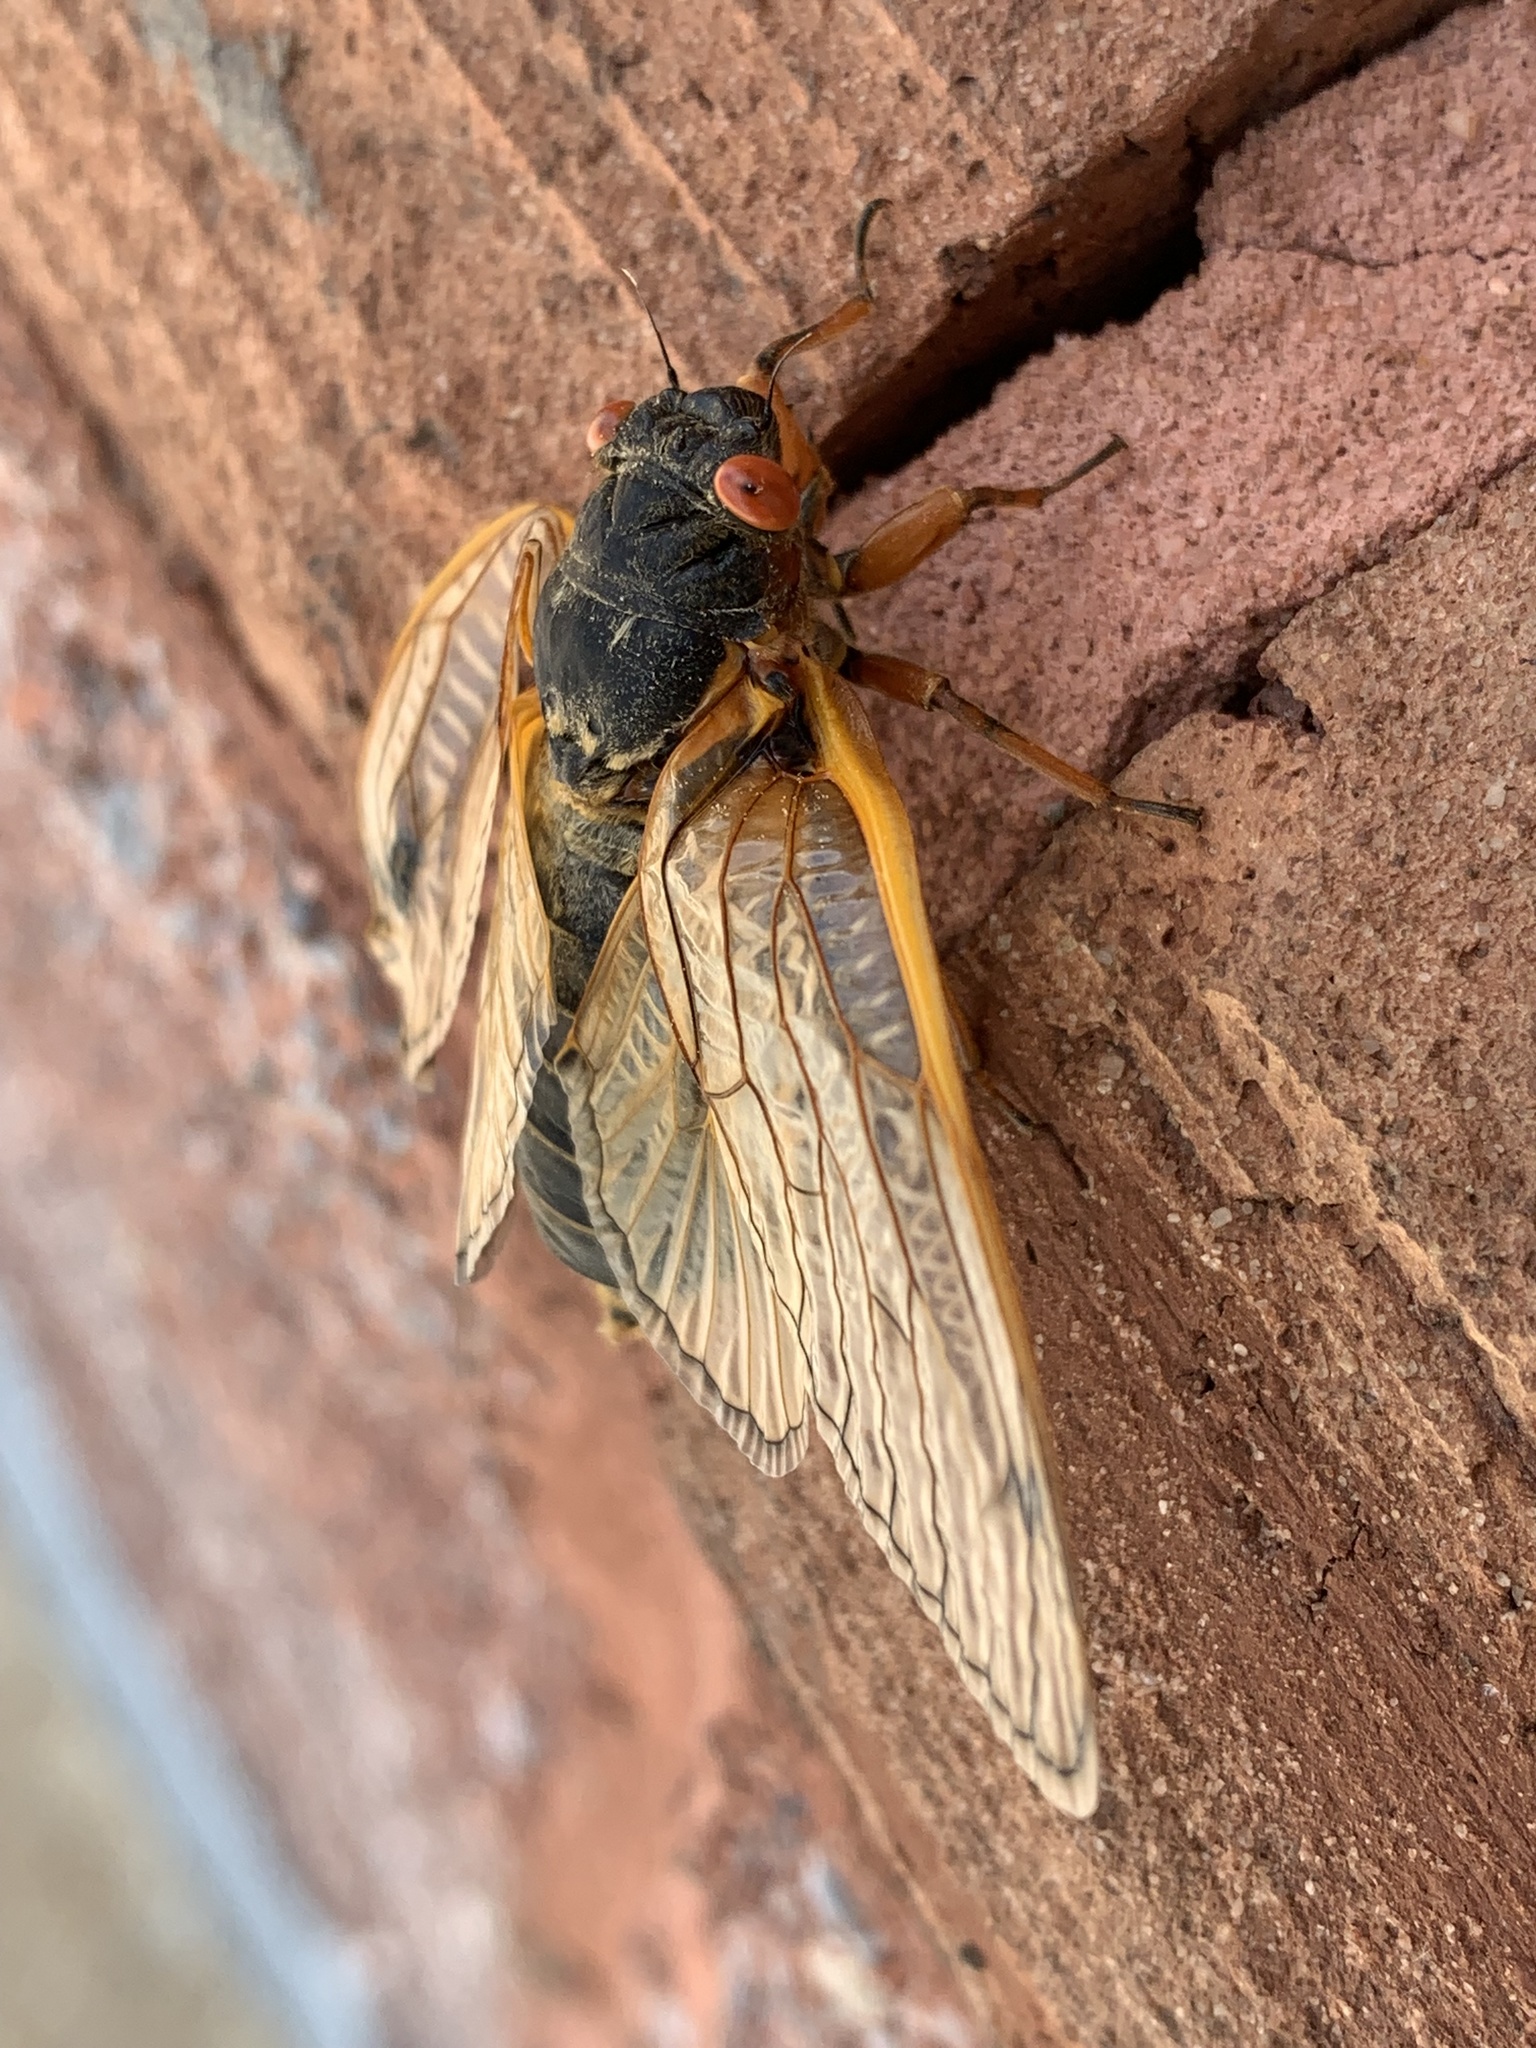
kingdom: Animalia
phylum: Arthropoda
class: Insecta
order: Hemiptera
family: Cicadidae
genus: Magicicada
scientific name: Magicicada septendecim
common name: Periodical cicada
